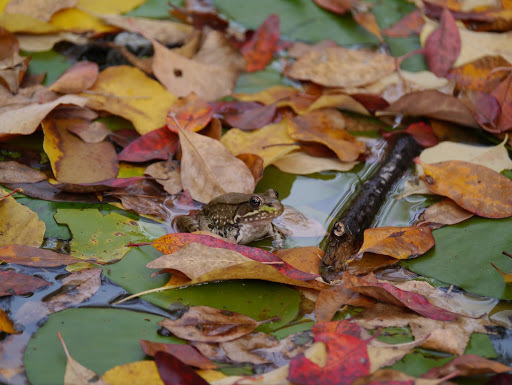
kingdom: Animalia
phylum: Chordata
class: Amphibia
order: Anura
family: Ranidae
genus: Lithobates
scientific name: Lithobates clamitans
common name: Green frog
